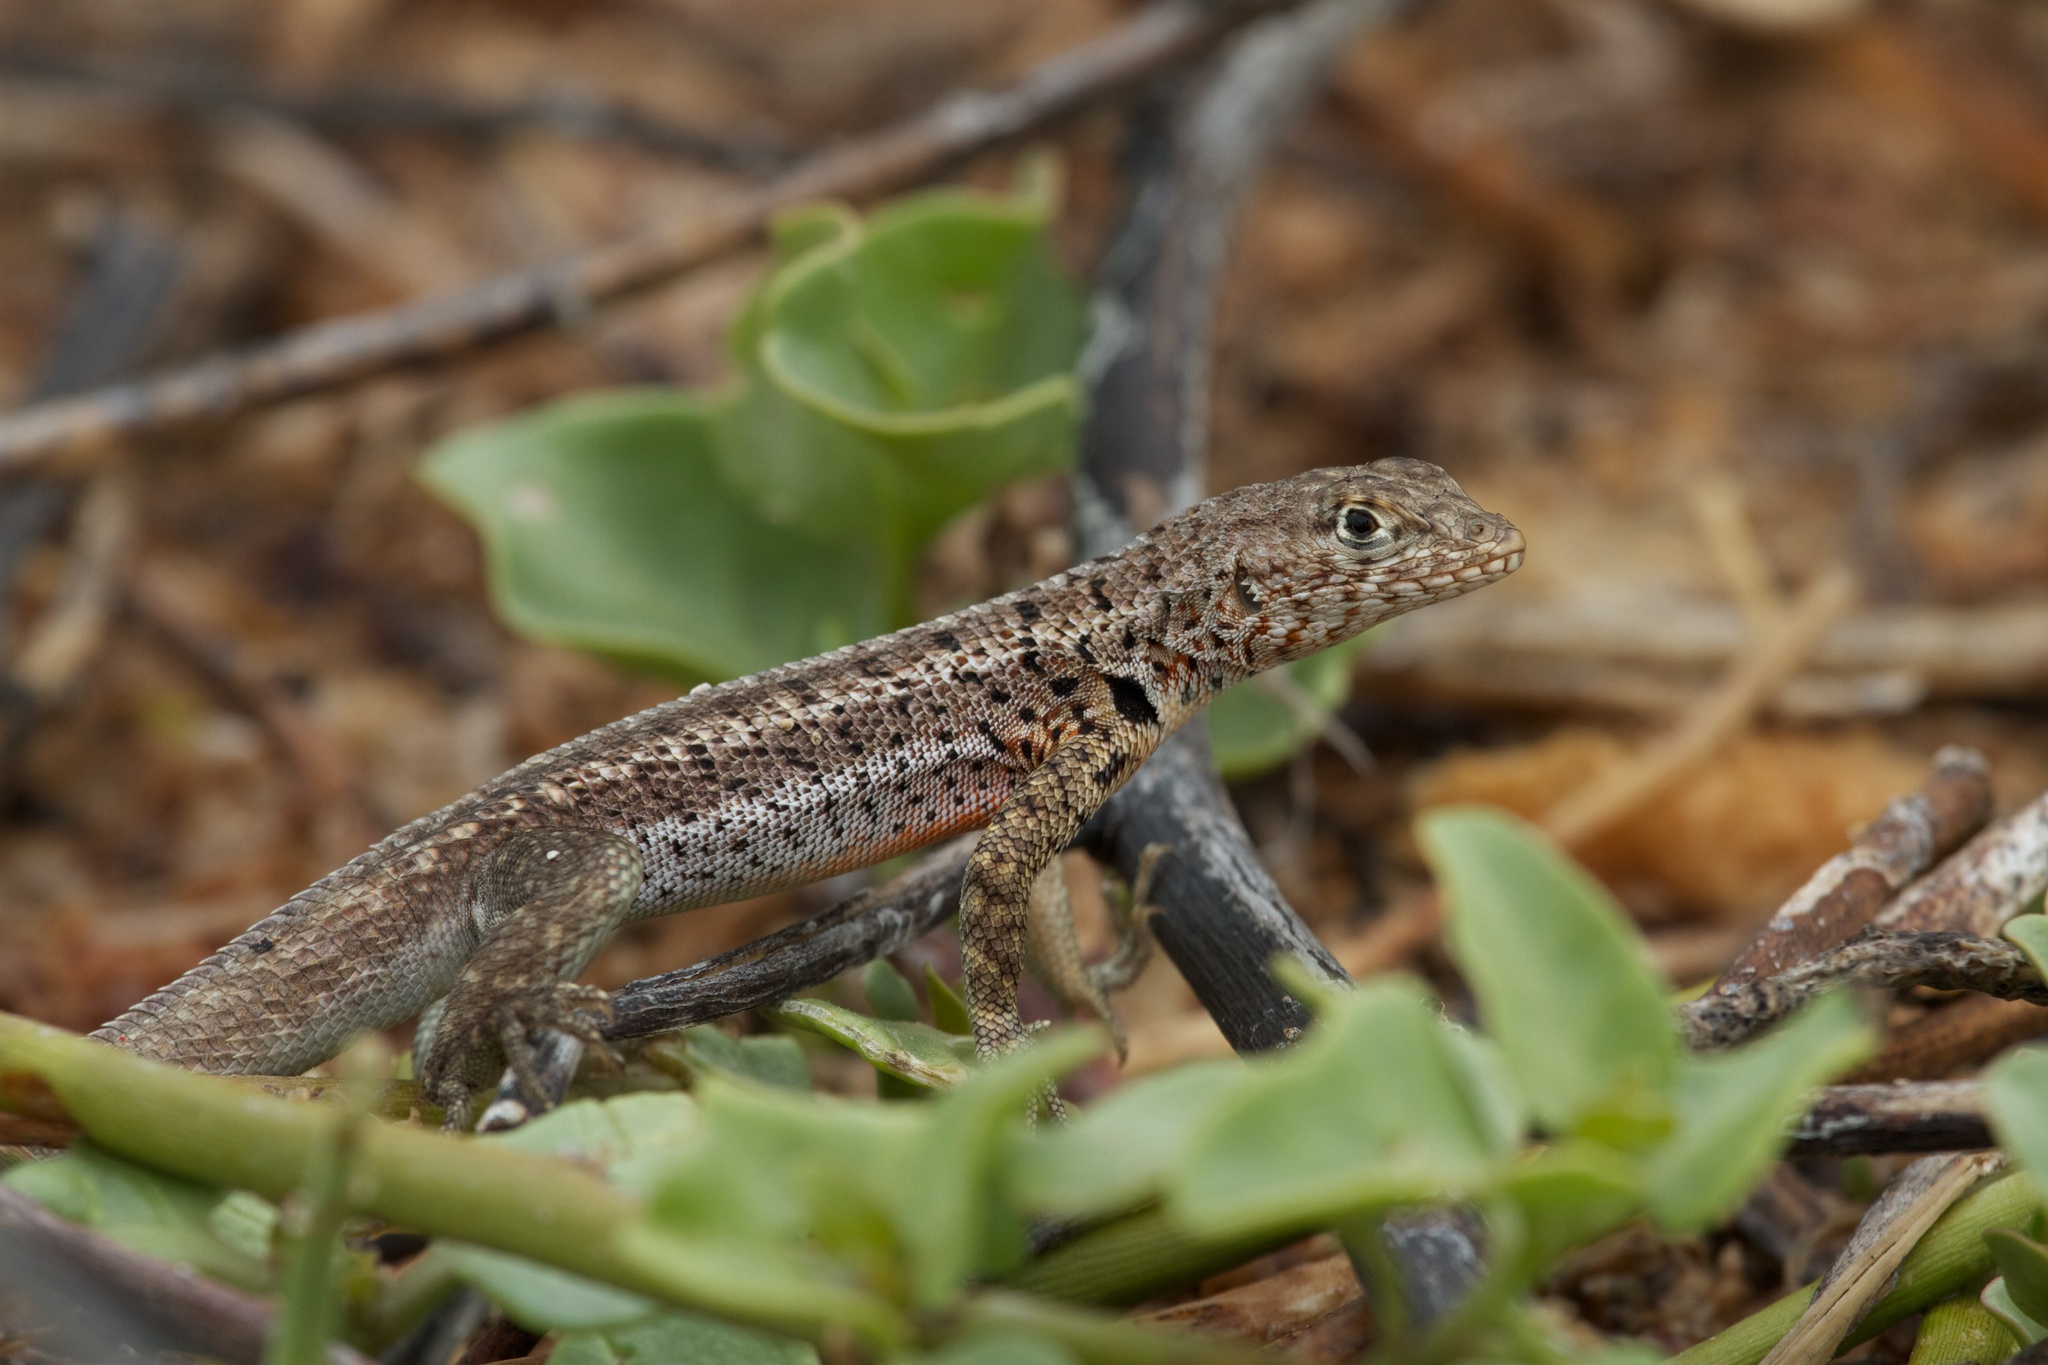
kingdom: Animalia
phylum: Chordata
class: Squamata
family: Tropiduridae
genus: Microlophus
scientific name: Microlophus indefatigabilis
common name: Galapagos lava lizard
